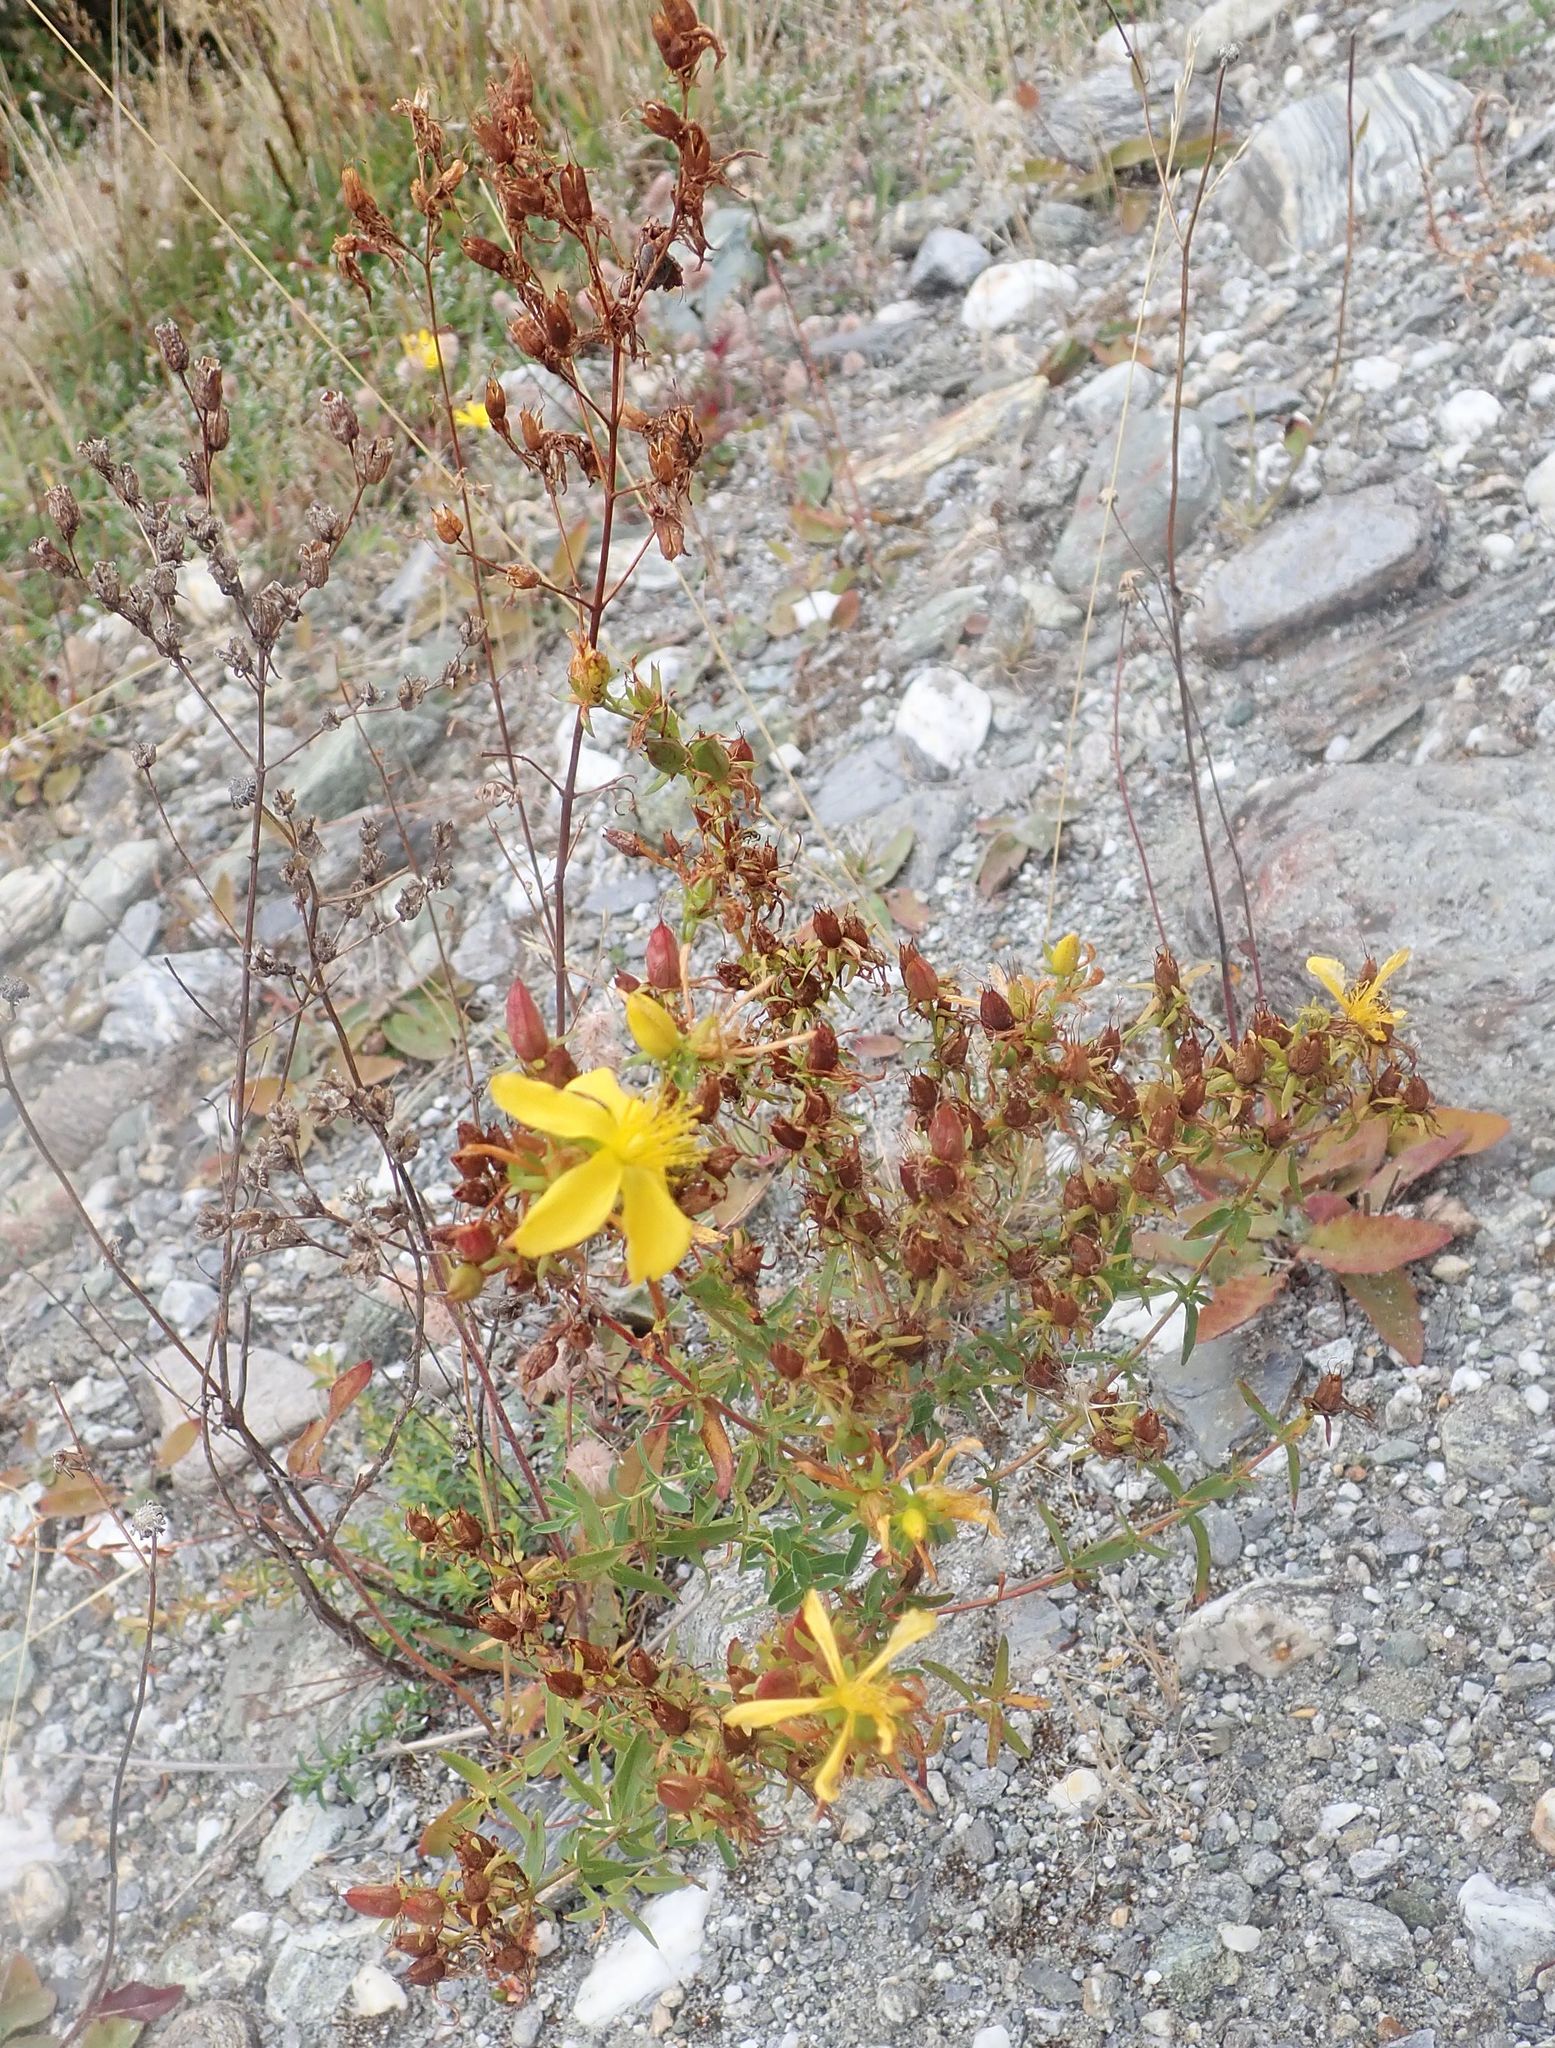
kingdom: Plantae
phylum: Tracheophyta
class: Magnoliopsida
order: Malpighiales
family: Hypericaceae
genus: Hypericum
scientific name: Hypericum perforatum
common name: Common st. johnswort
